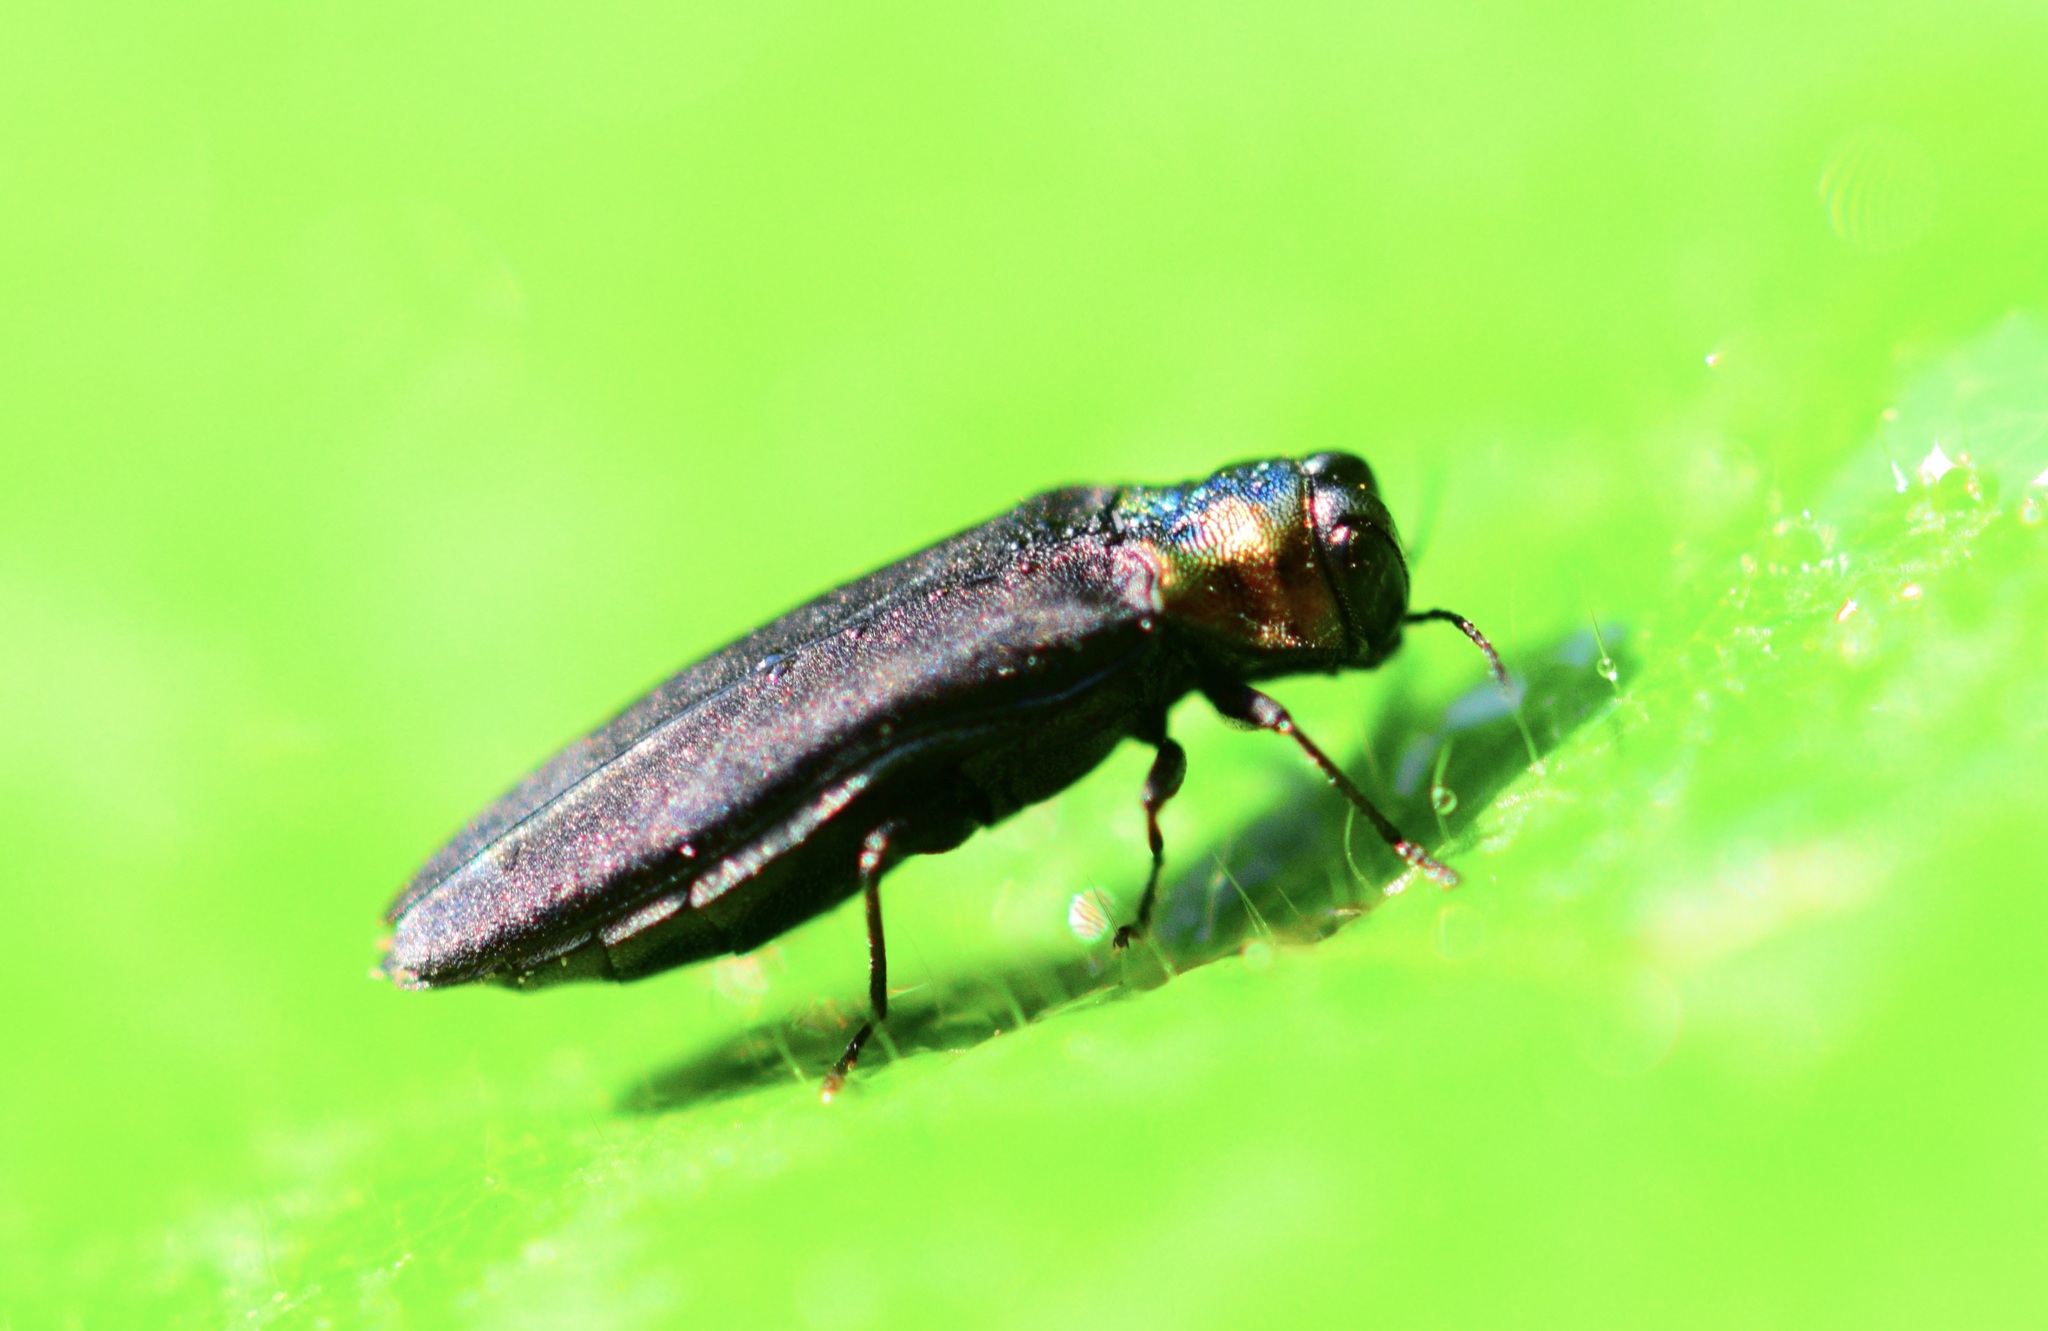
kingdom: Animalia
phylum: Arthropoda
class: Insecta
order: Coleoptera
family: Buprestidae
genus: Agrilus
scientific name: Agrilus ruficollis
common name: Red-necked cane borer beetle
